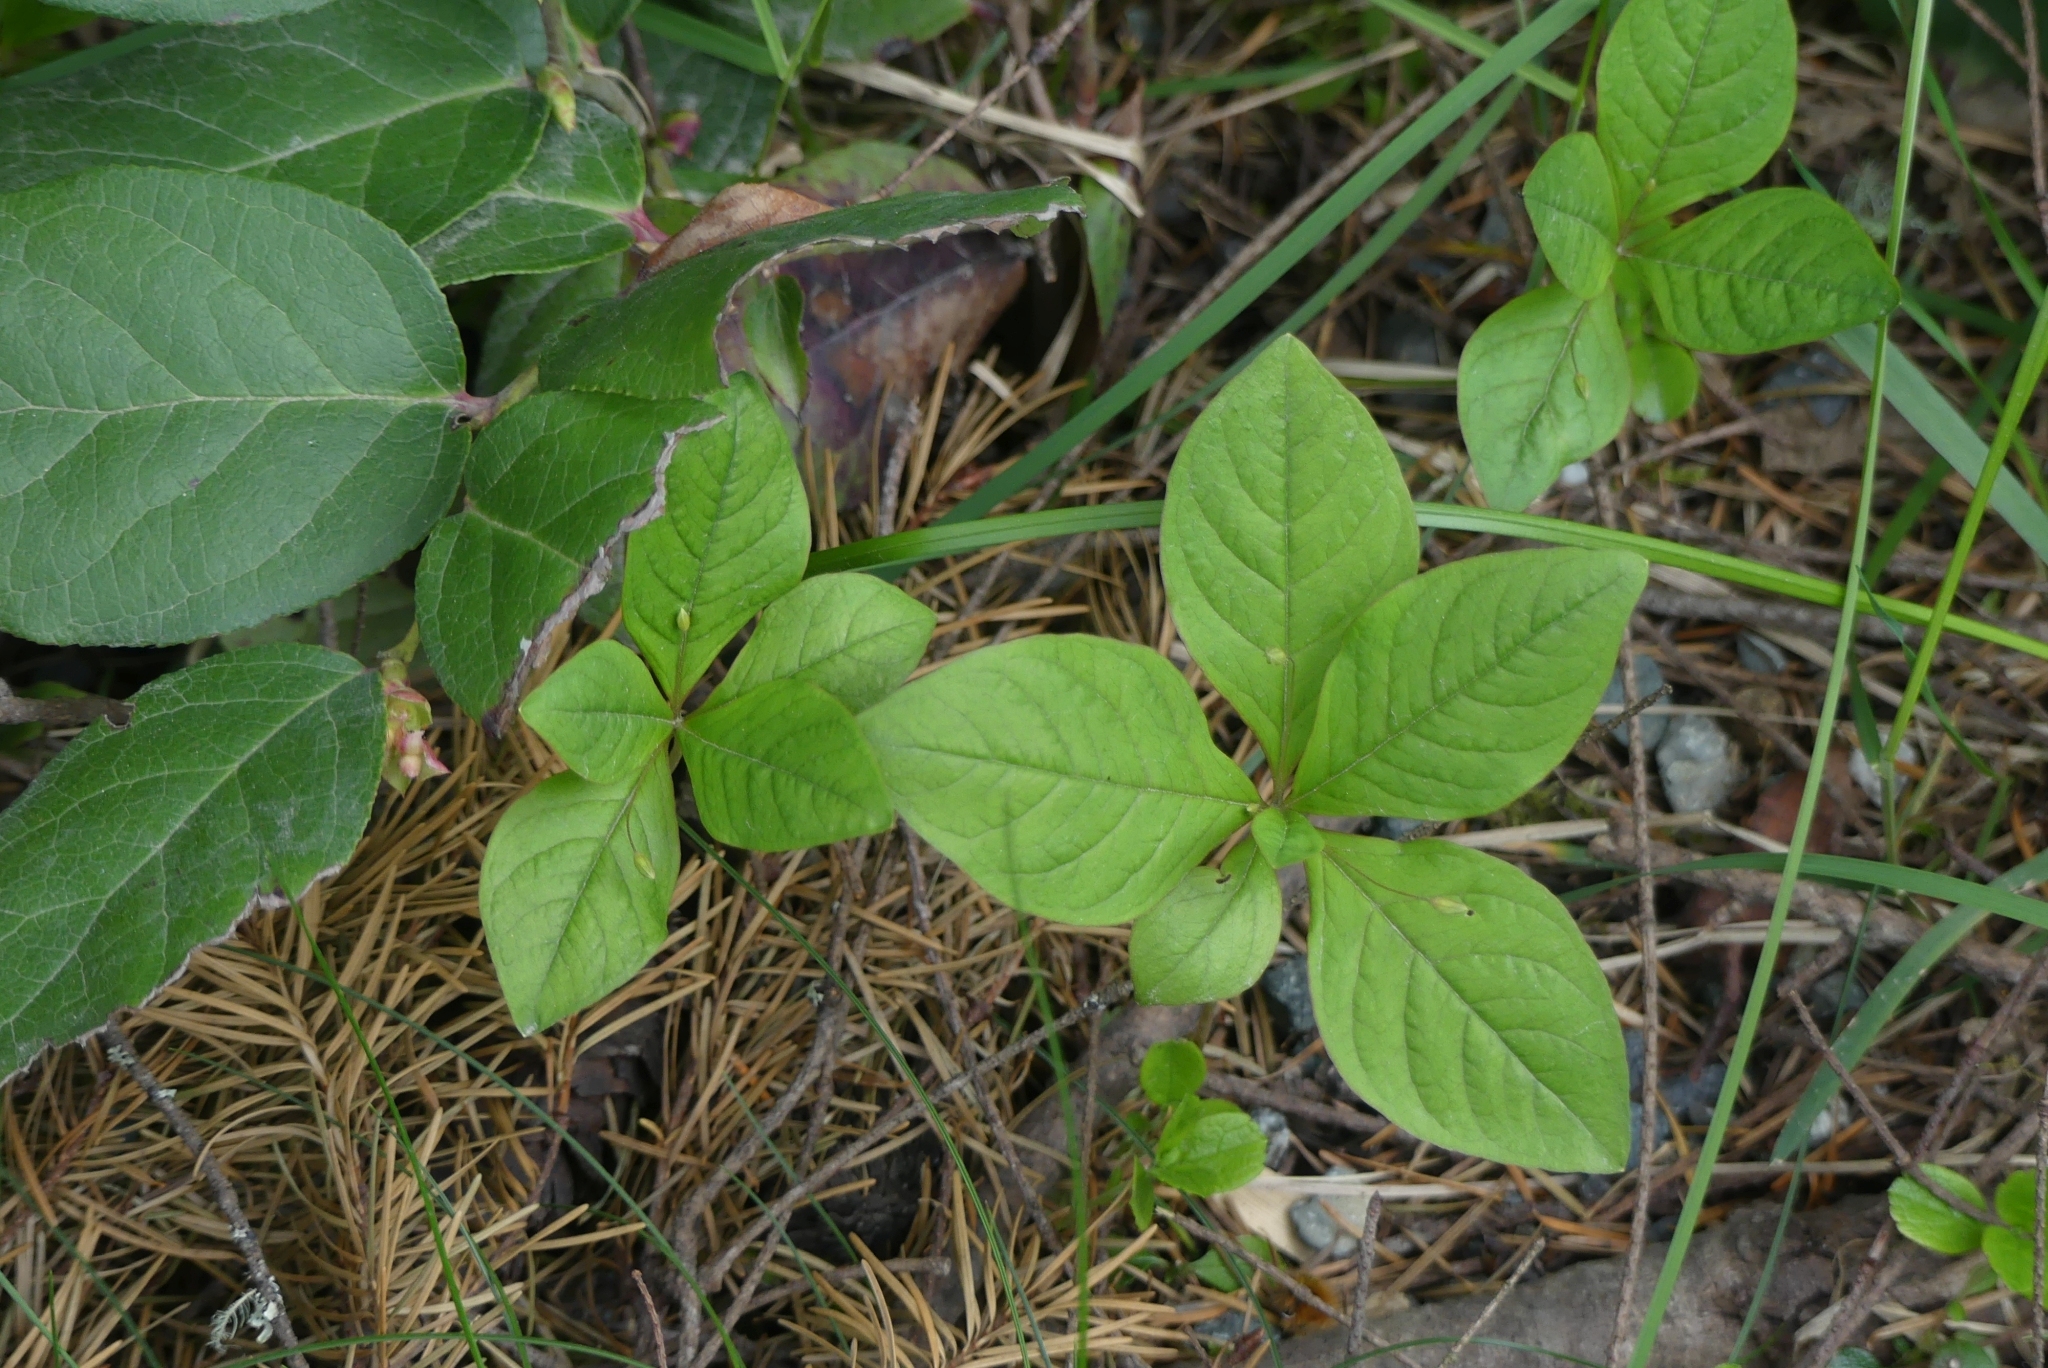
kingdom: Plantae
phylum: Tracheophyta
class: Magnoliopsida
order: Ericales
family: Primulaceae
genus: Lysimachia
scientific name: Lysimachia latifolia
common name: Pacific starflower
